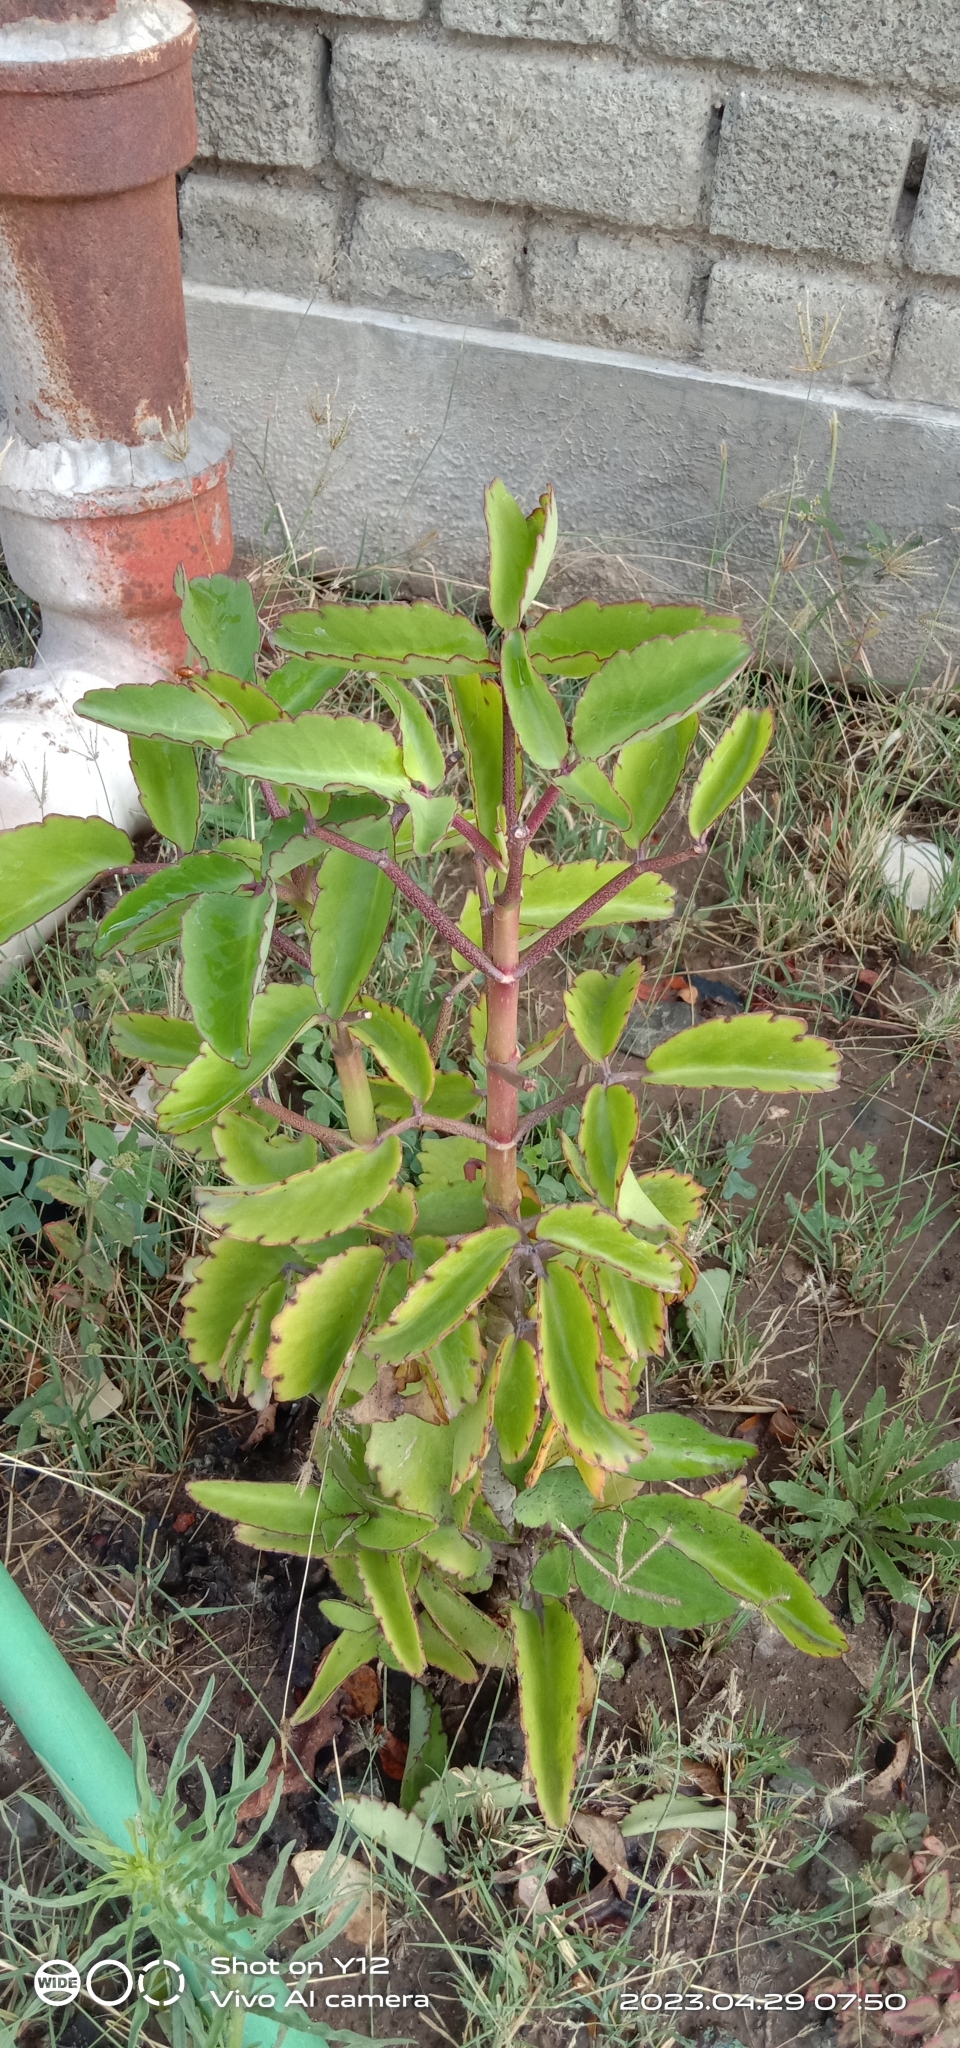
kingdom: Plantae
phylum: Tracheophyta
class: Magnoliopsida
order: Saxifragales
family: Crassulaceae
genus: Kalanchoe
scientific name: Kalanchoe pinnata
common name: Cathedral bells
